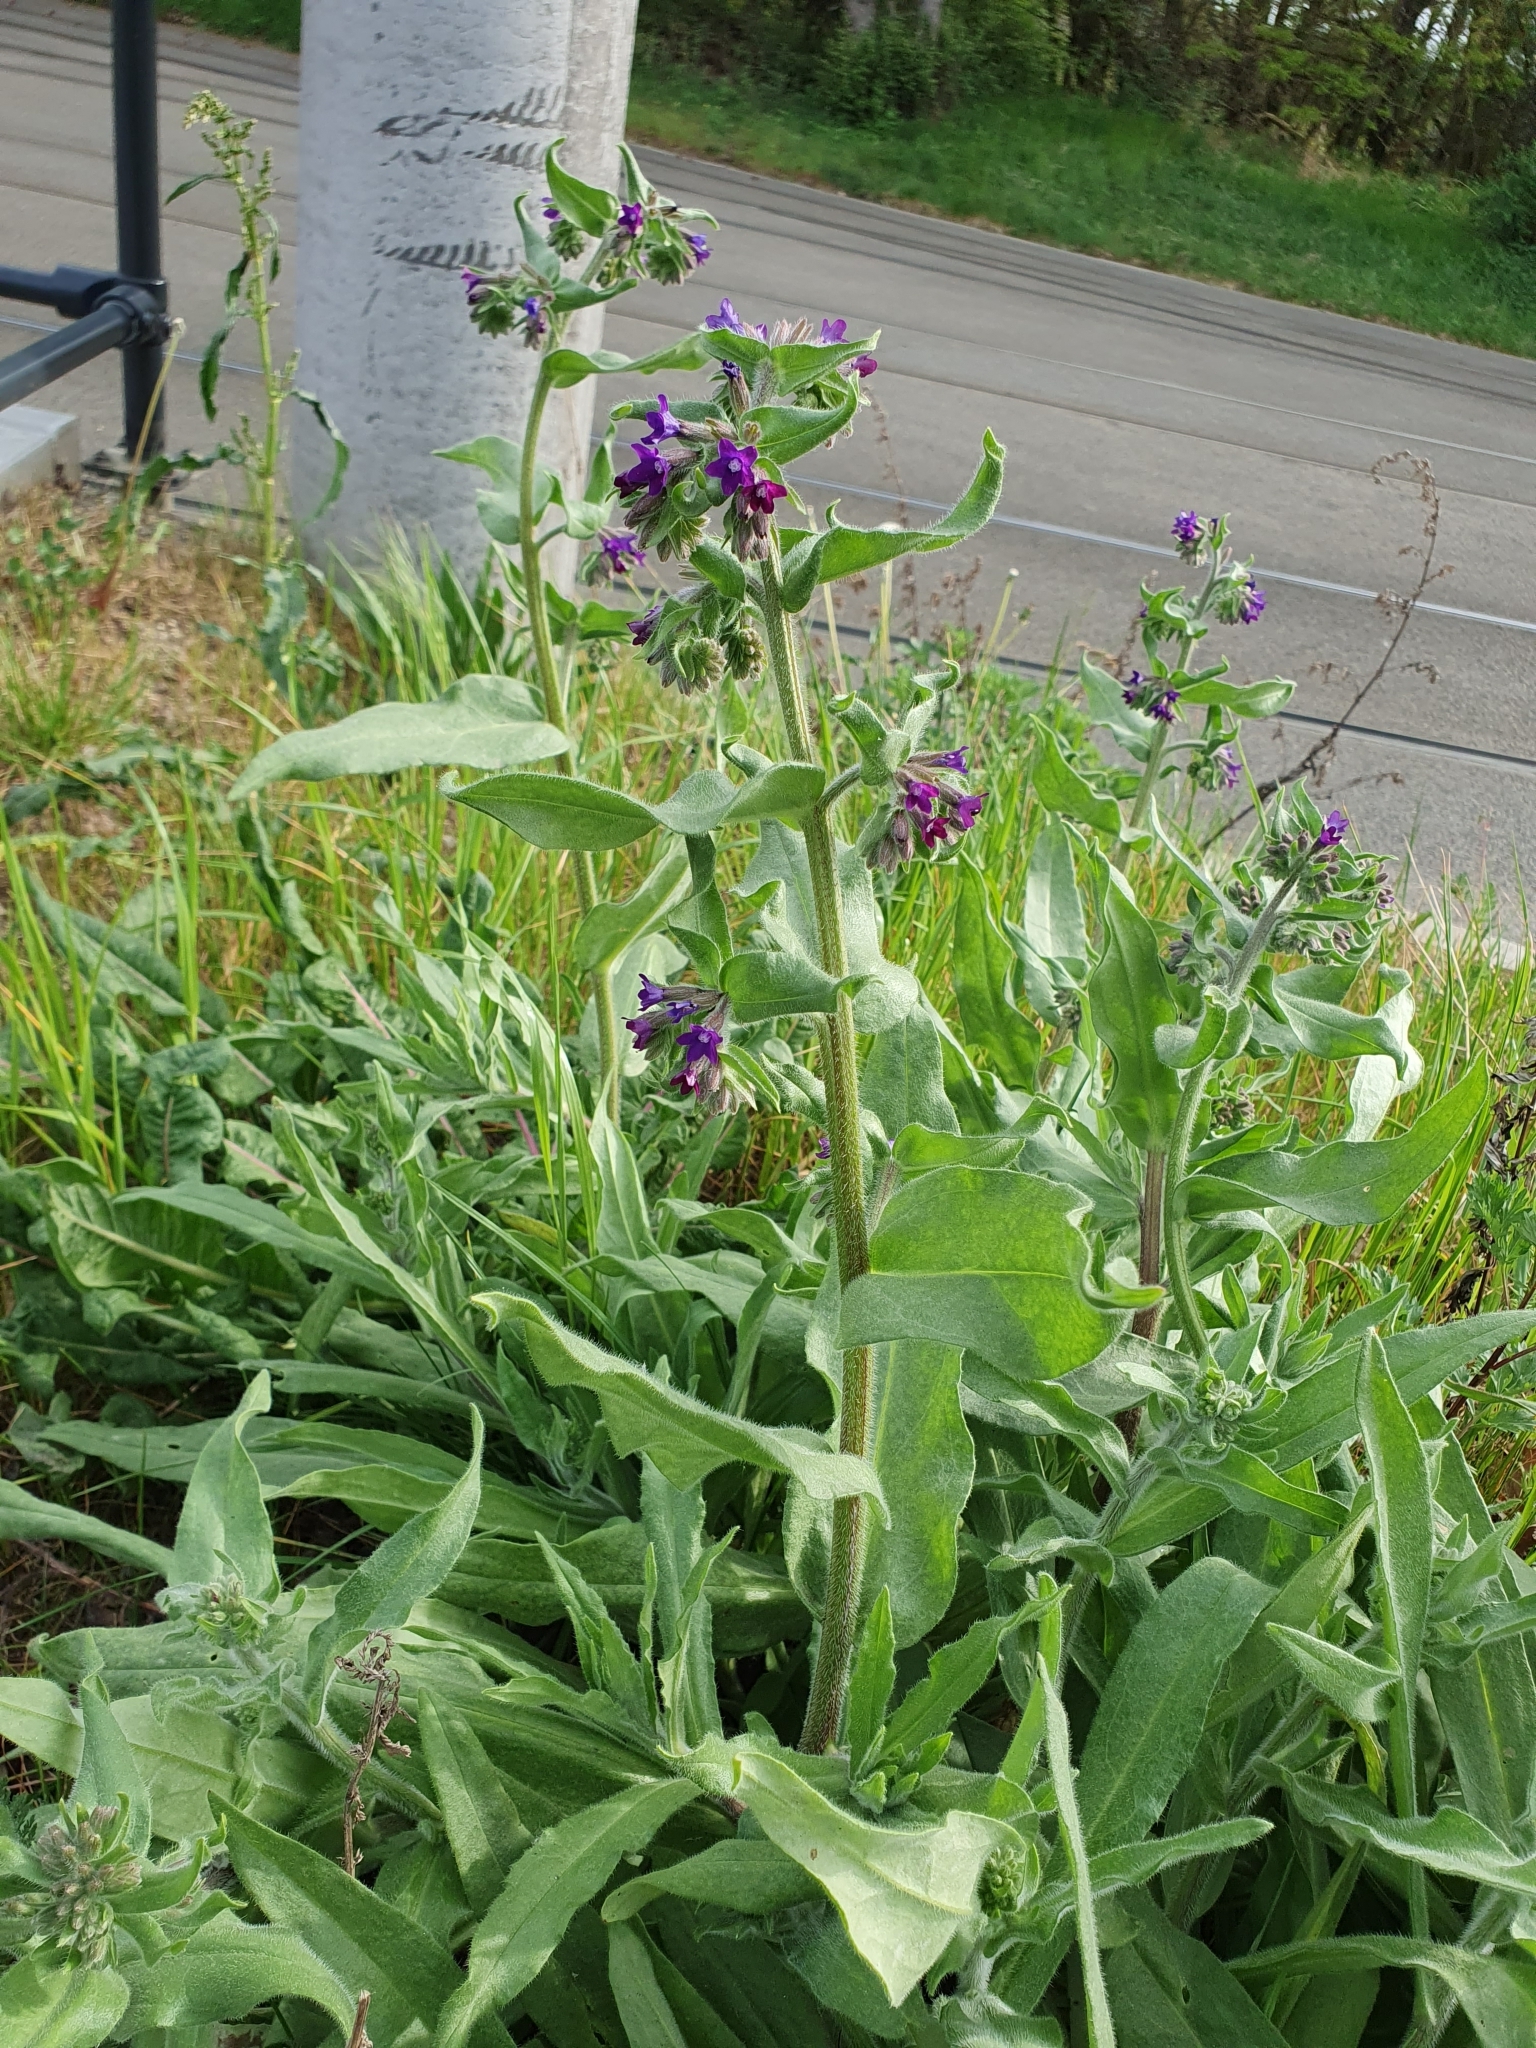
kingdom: Plantae
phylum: Tracheophyta
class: Magnoliopsida
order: Boraginales
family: Boraginaceae
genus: Anchusa
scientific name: Anchusa officinalis
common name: Alkanet
